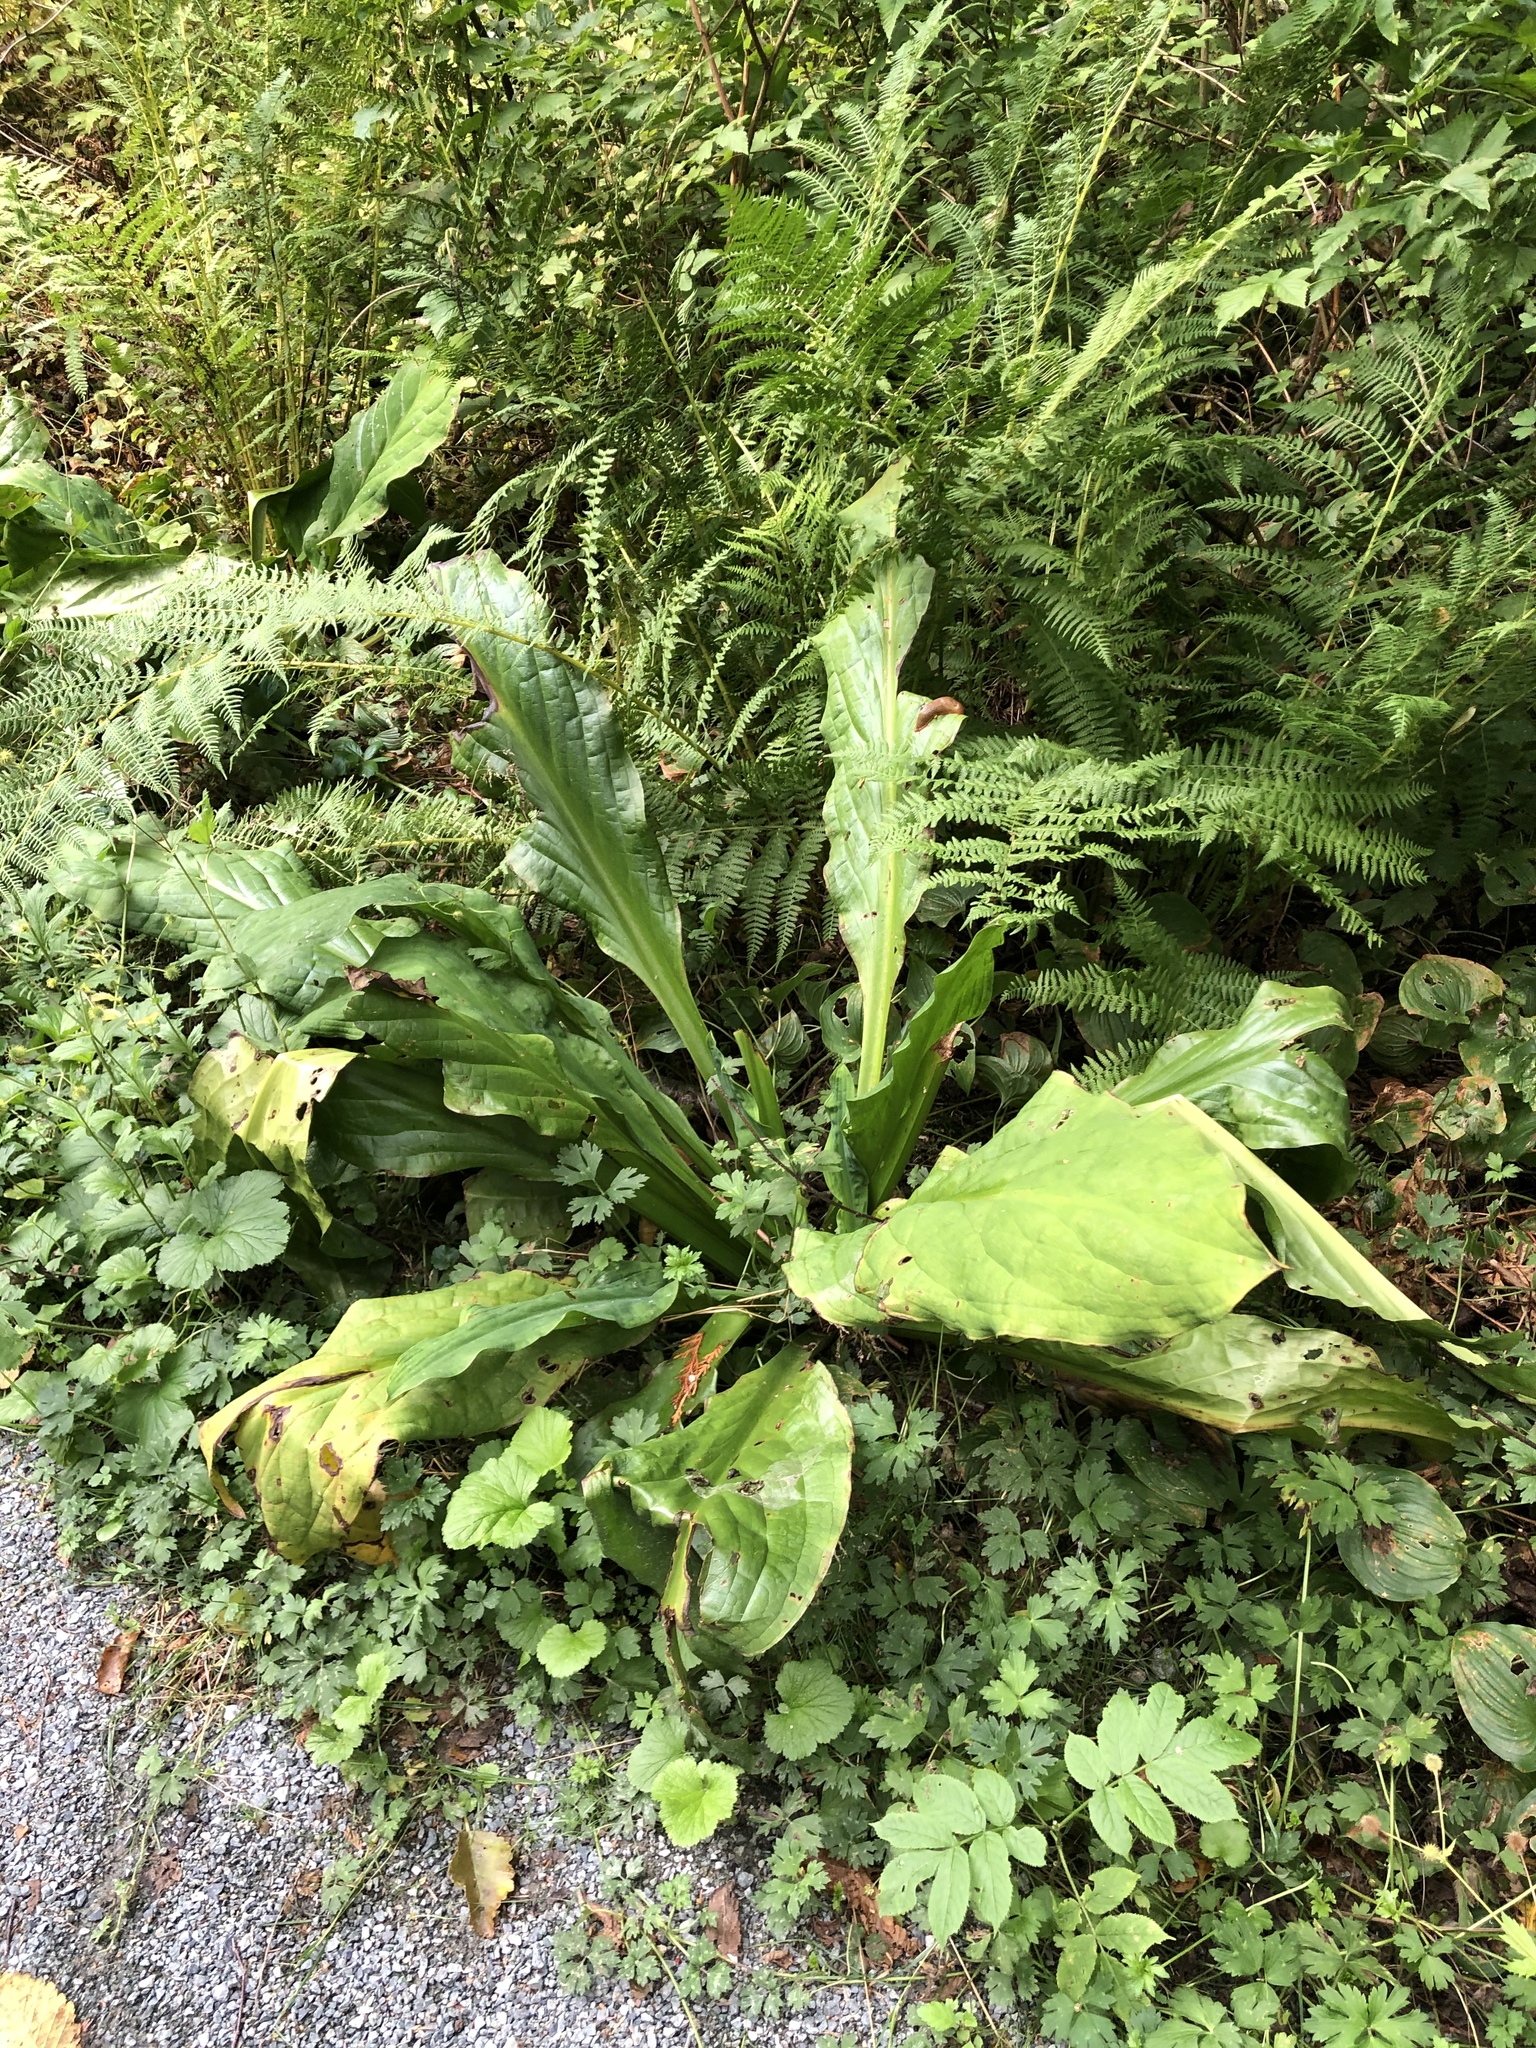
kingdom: Plantae
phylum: Tracheophyta
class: Liliopsida
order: Alismatales
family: Araceae
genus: Lysichiton
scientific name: Lysichiton americanus
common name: American skunk cabbage
